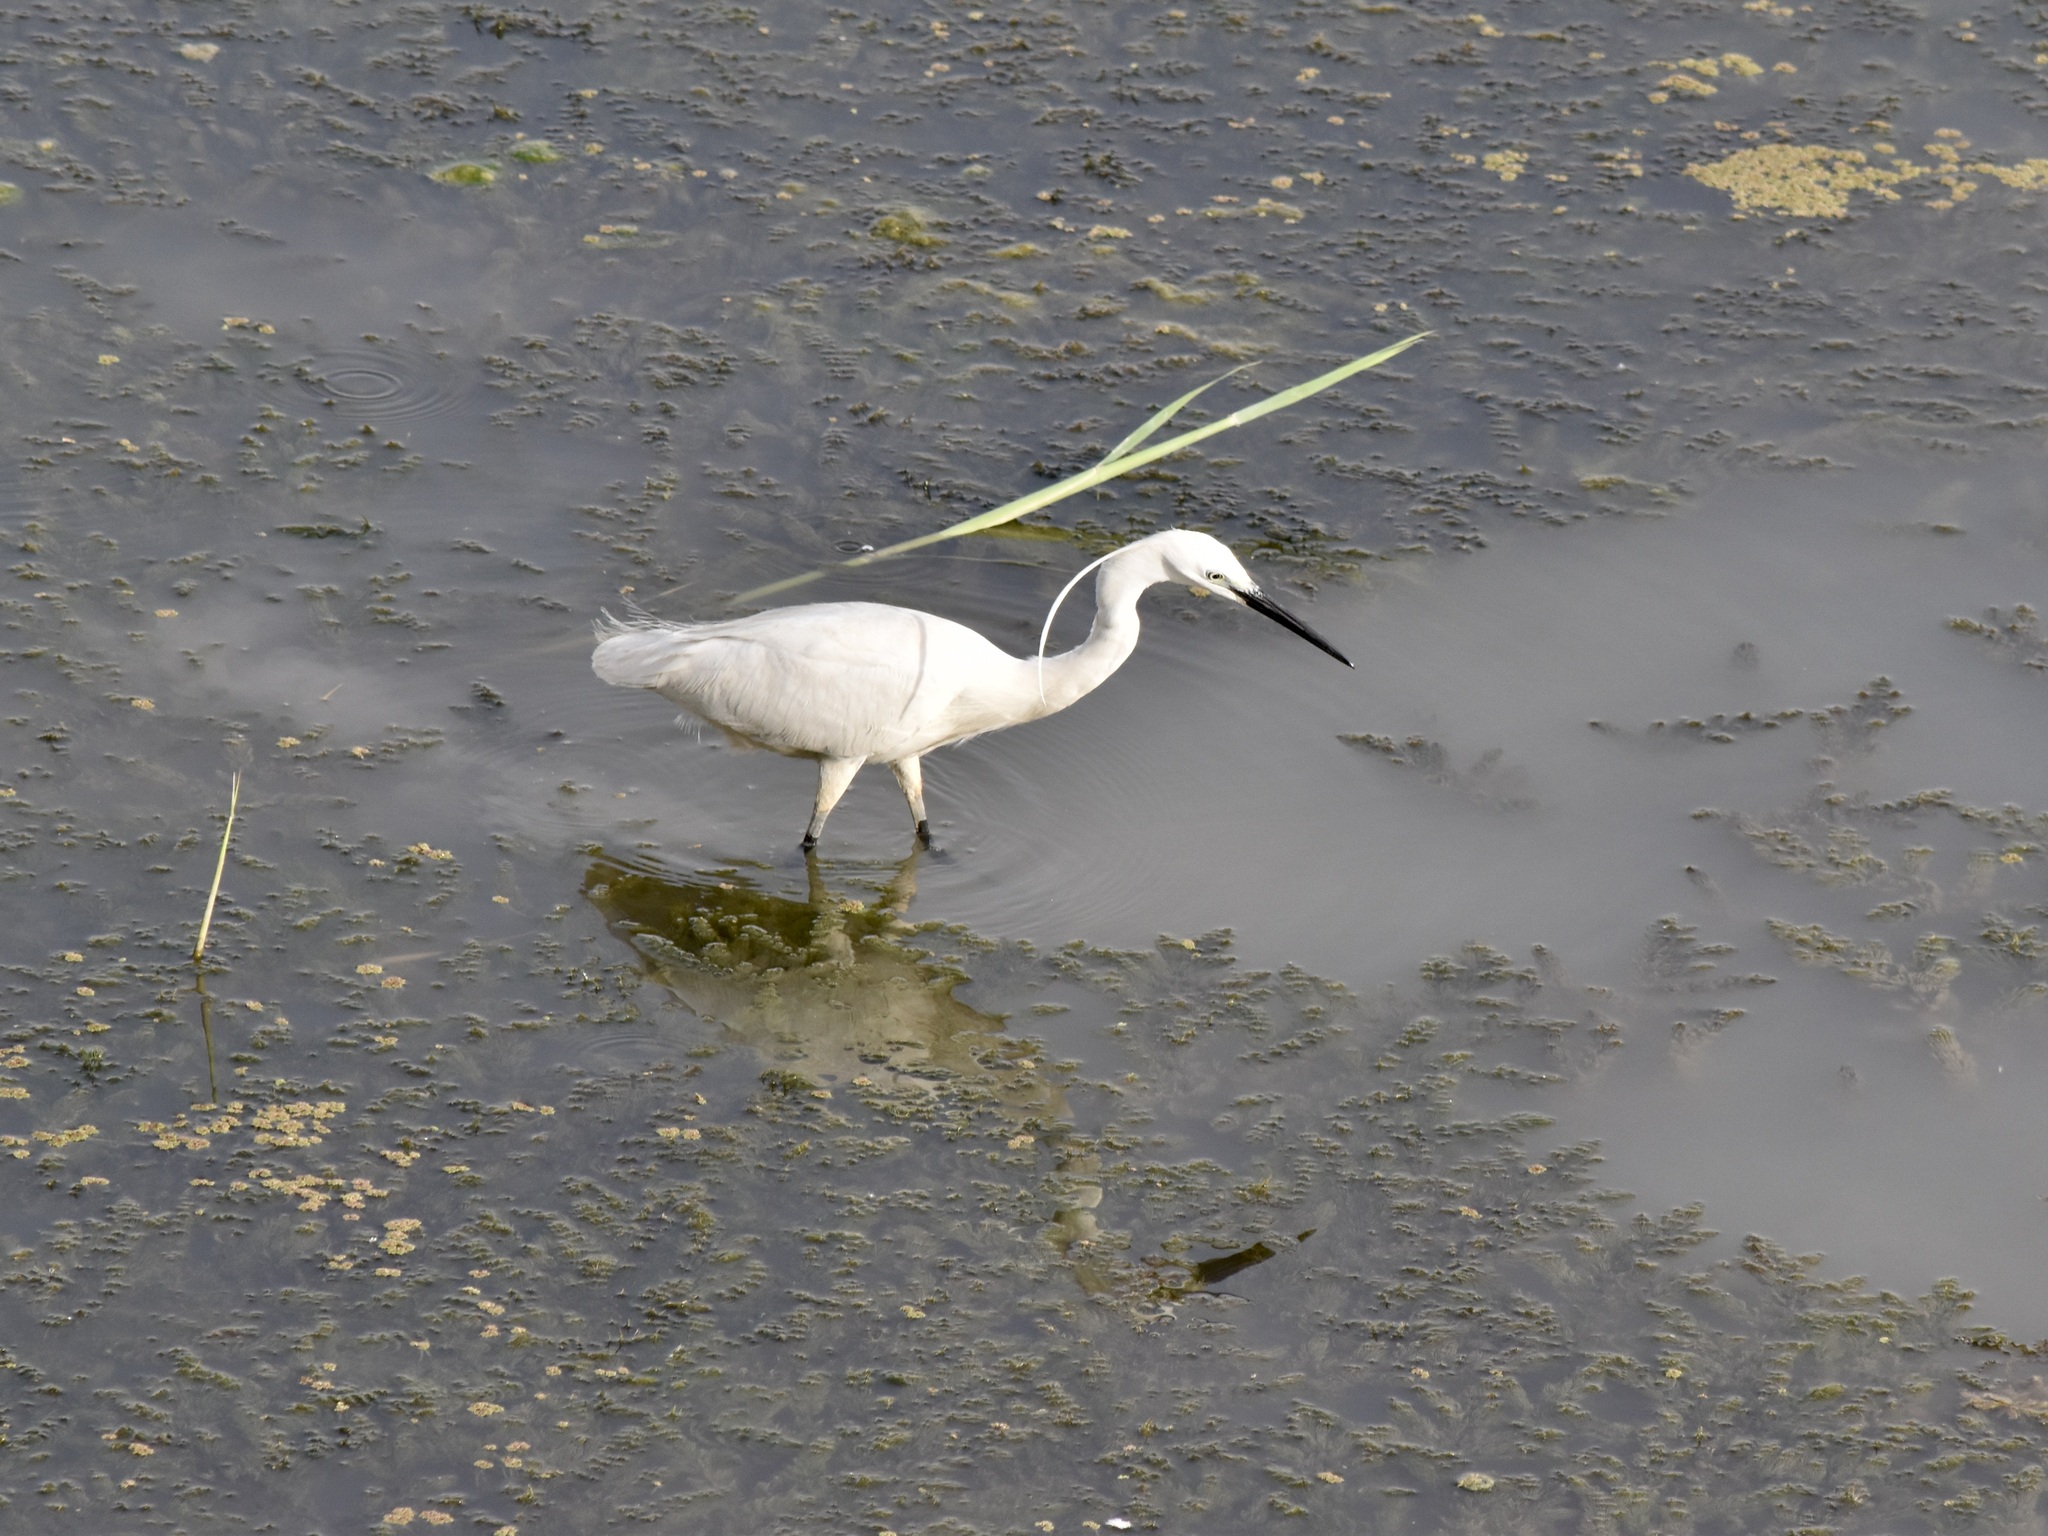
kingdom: Animalia
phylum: Chordata
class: Aves
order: Pelecaniformes
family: Ardeidae
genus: Egretta
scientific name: Egretta garzetta
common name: Little egret
